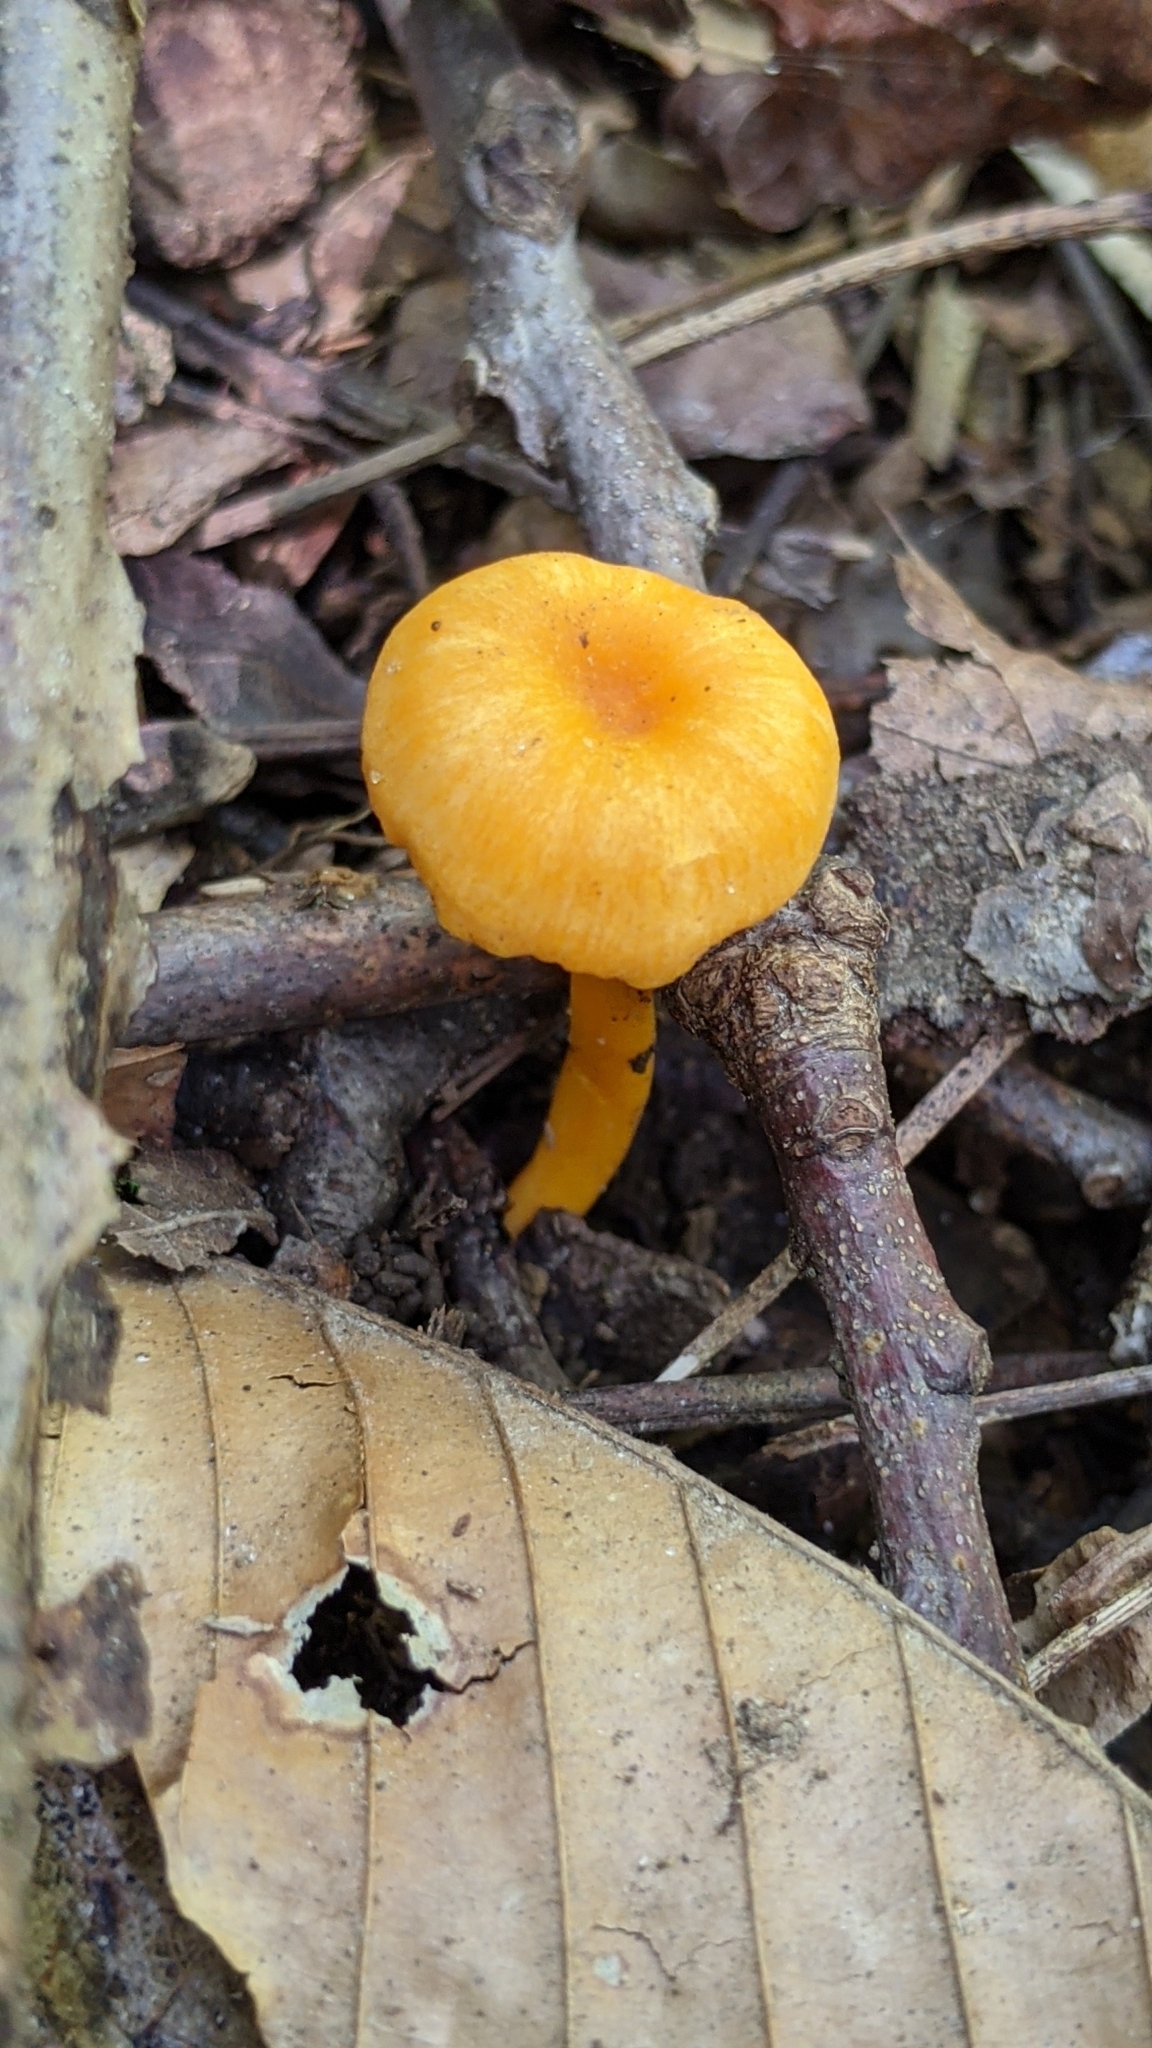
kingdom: Fungi
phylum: Basidiomycota
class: Agaricomycetes
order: Cantharellales
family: Hydnaceae
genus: Cantharellus
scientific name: Cantharellus minor
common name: Small chanterelle
